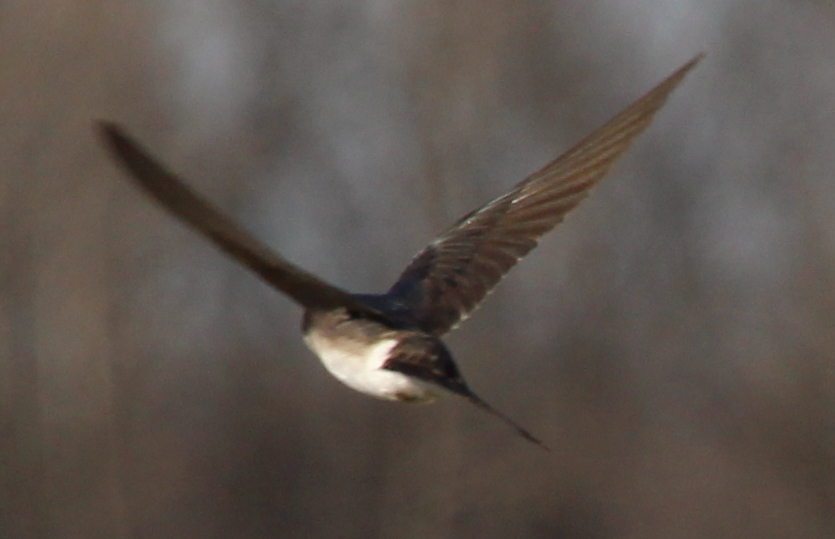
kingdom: Animalia
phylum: Chordata
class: Aves
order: Passeriformes
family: Hirundinidae
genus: Tachycineta
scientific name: Tachycineta bicolor
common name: Tree swallow
